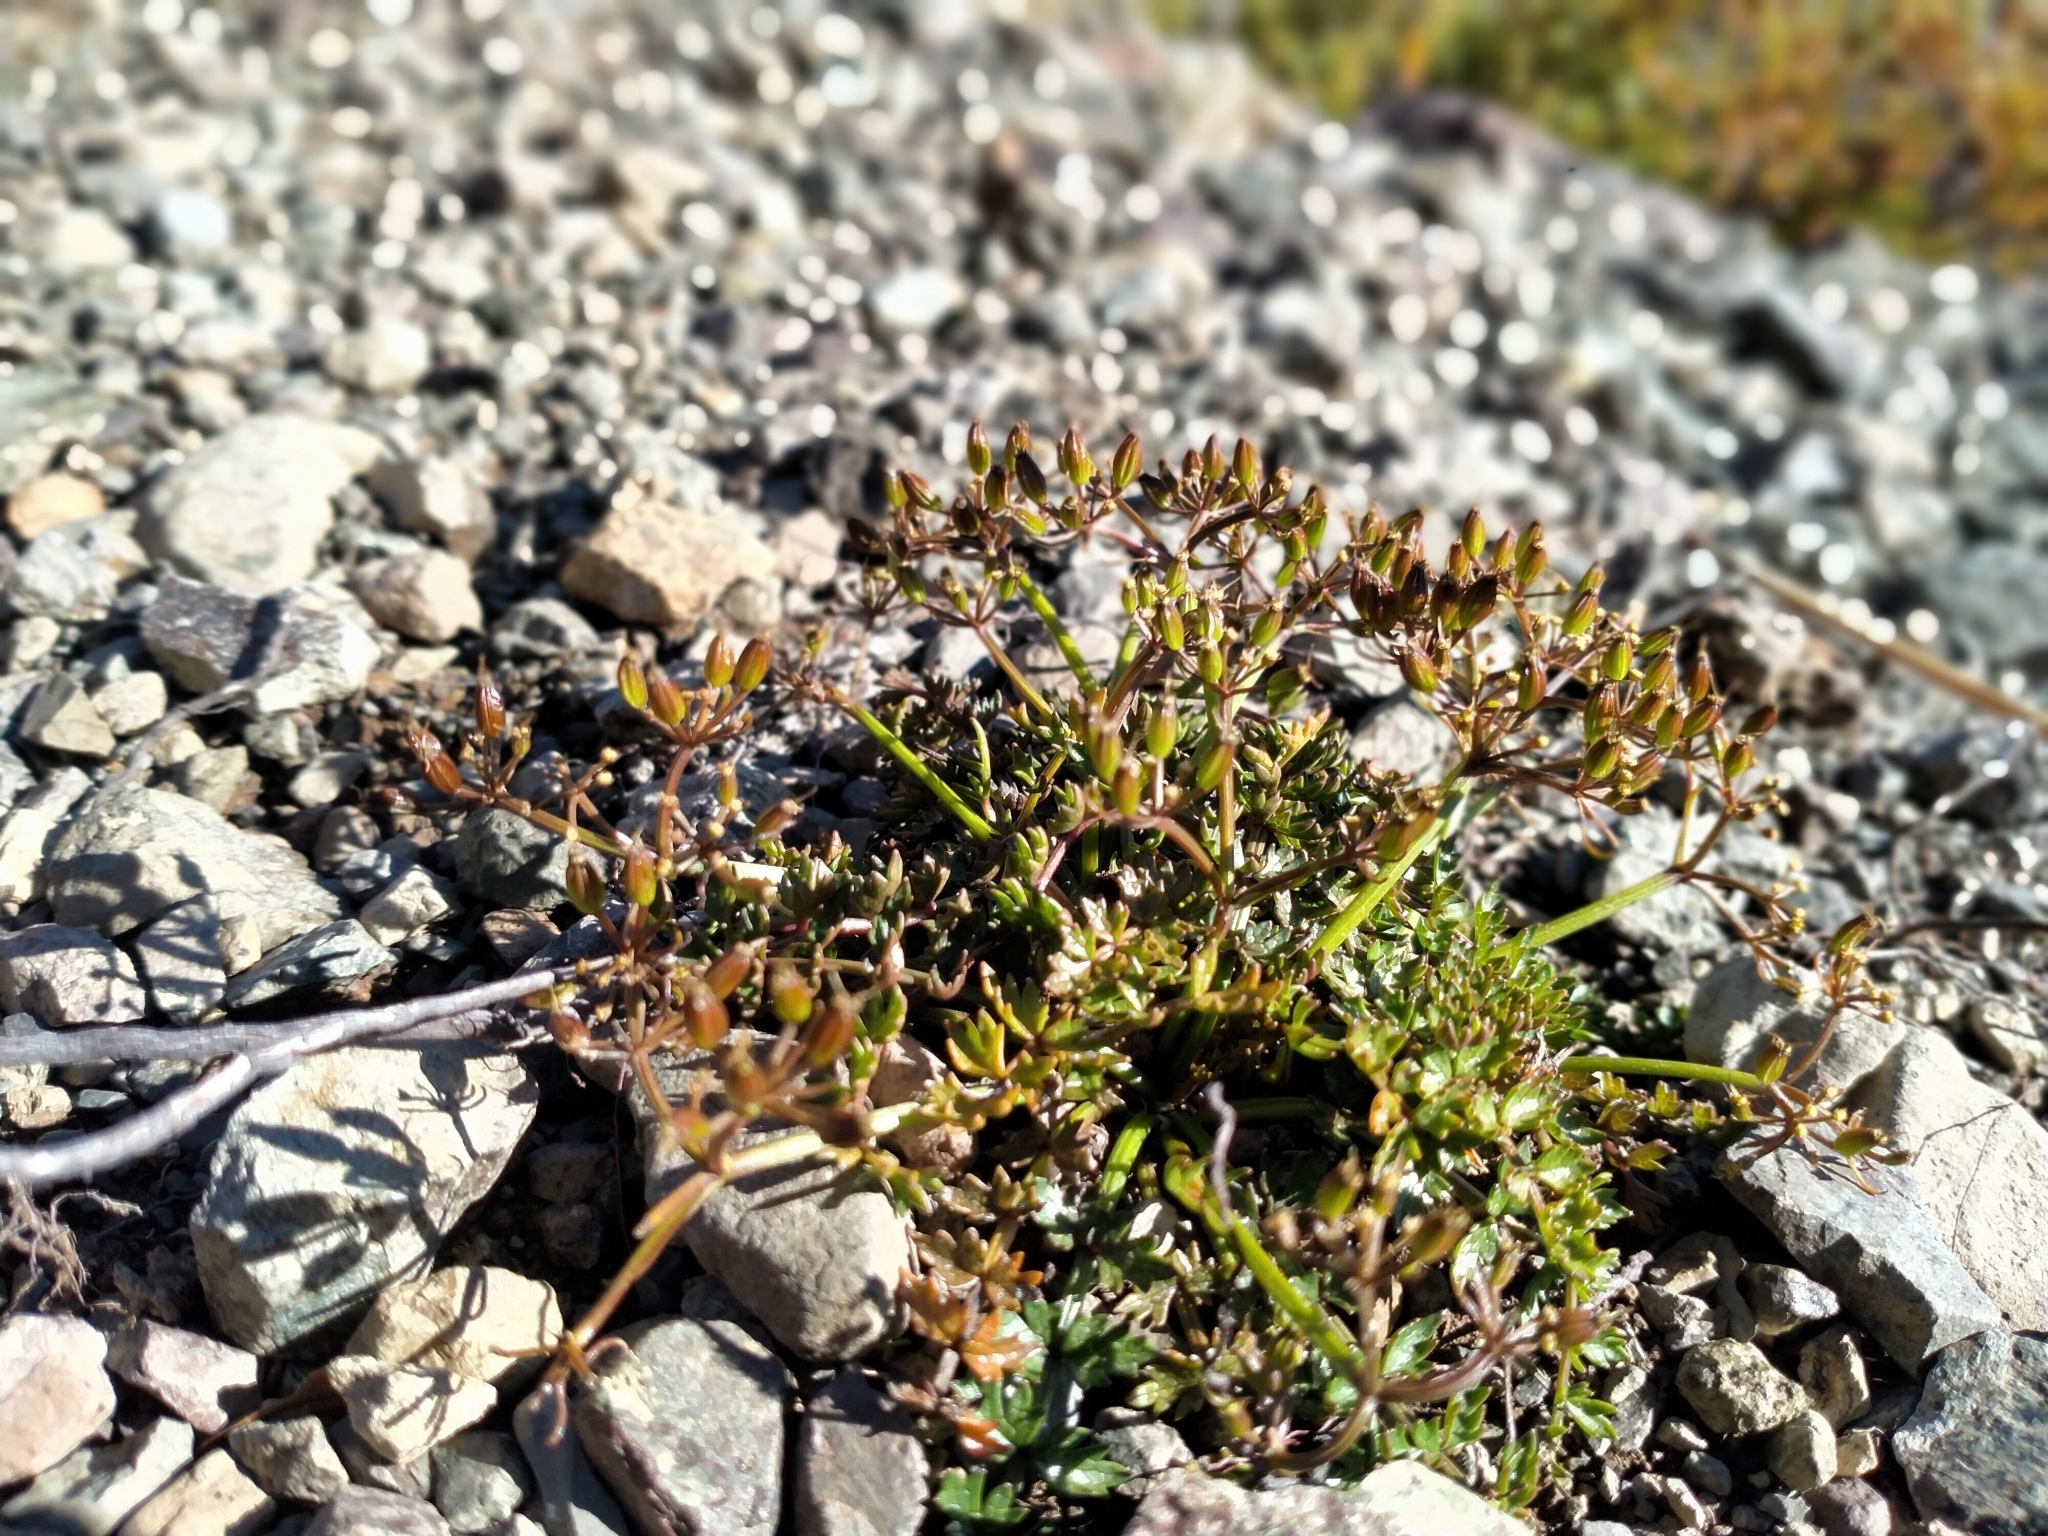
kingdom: Plantae
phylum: Tracheophyta
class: Magnoliopsida
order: Apiales
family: Apiaceae
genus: Gingidia
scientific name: Gingidia decipiens
